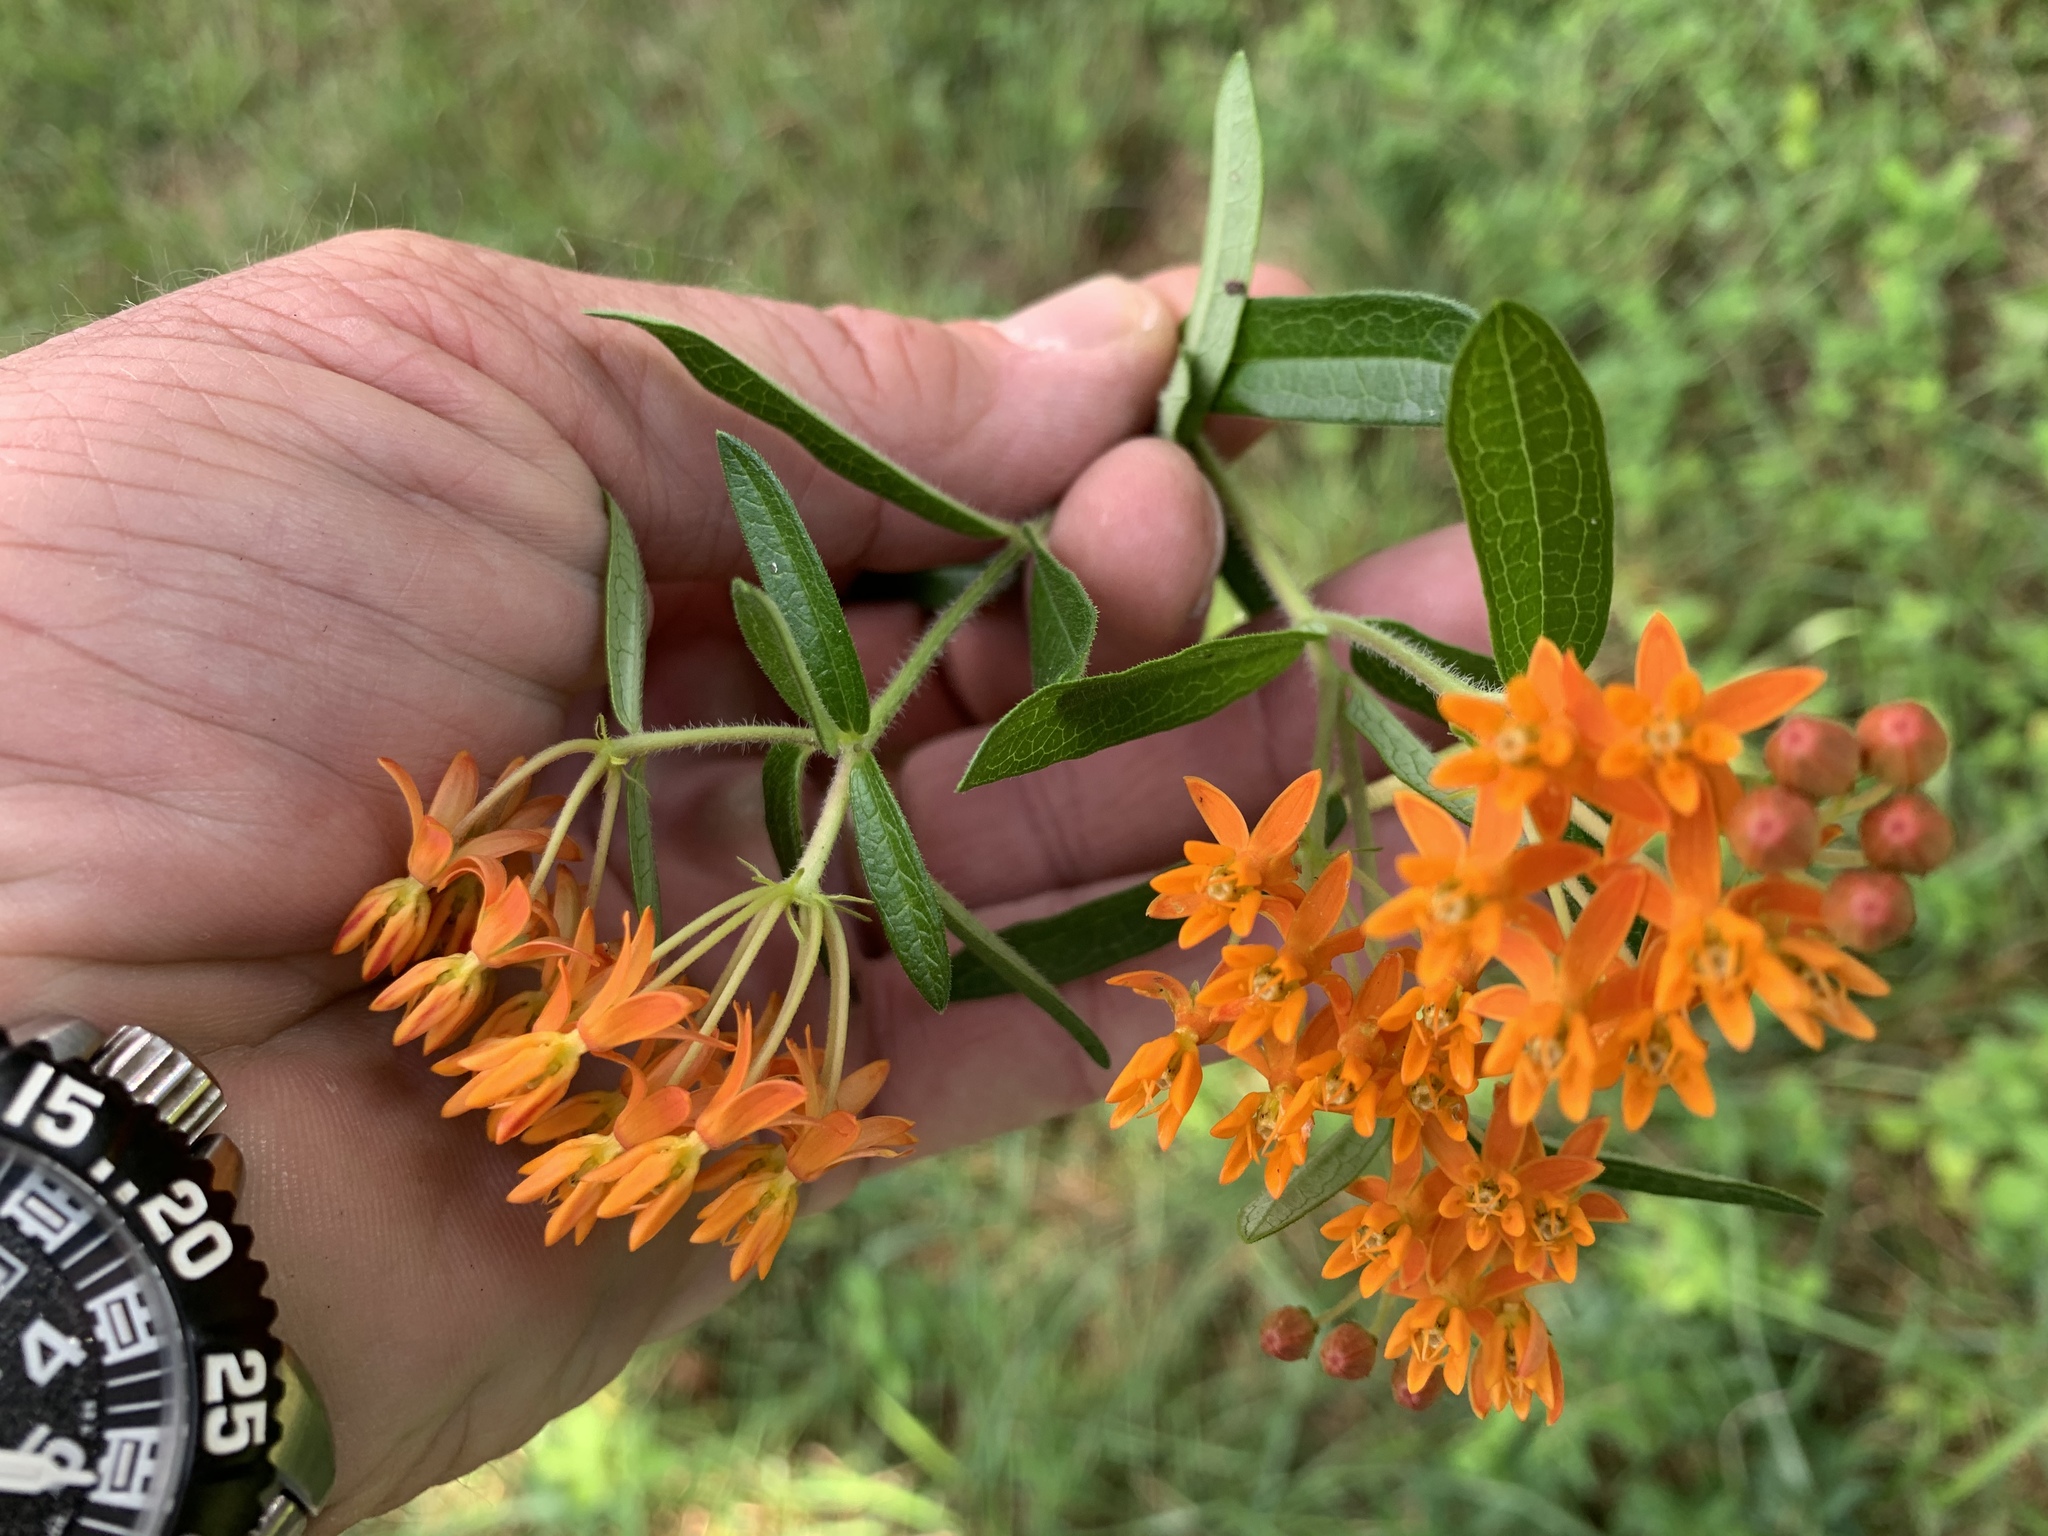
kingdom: Plantae
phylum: Tracheophyta
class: Magnoliopsida
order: Gentianales
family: Apocynaceae
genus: Asclepias
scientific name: Asclepias tuberosa
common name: Butterfly milkweed
